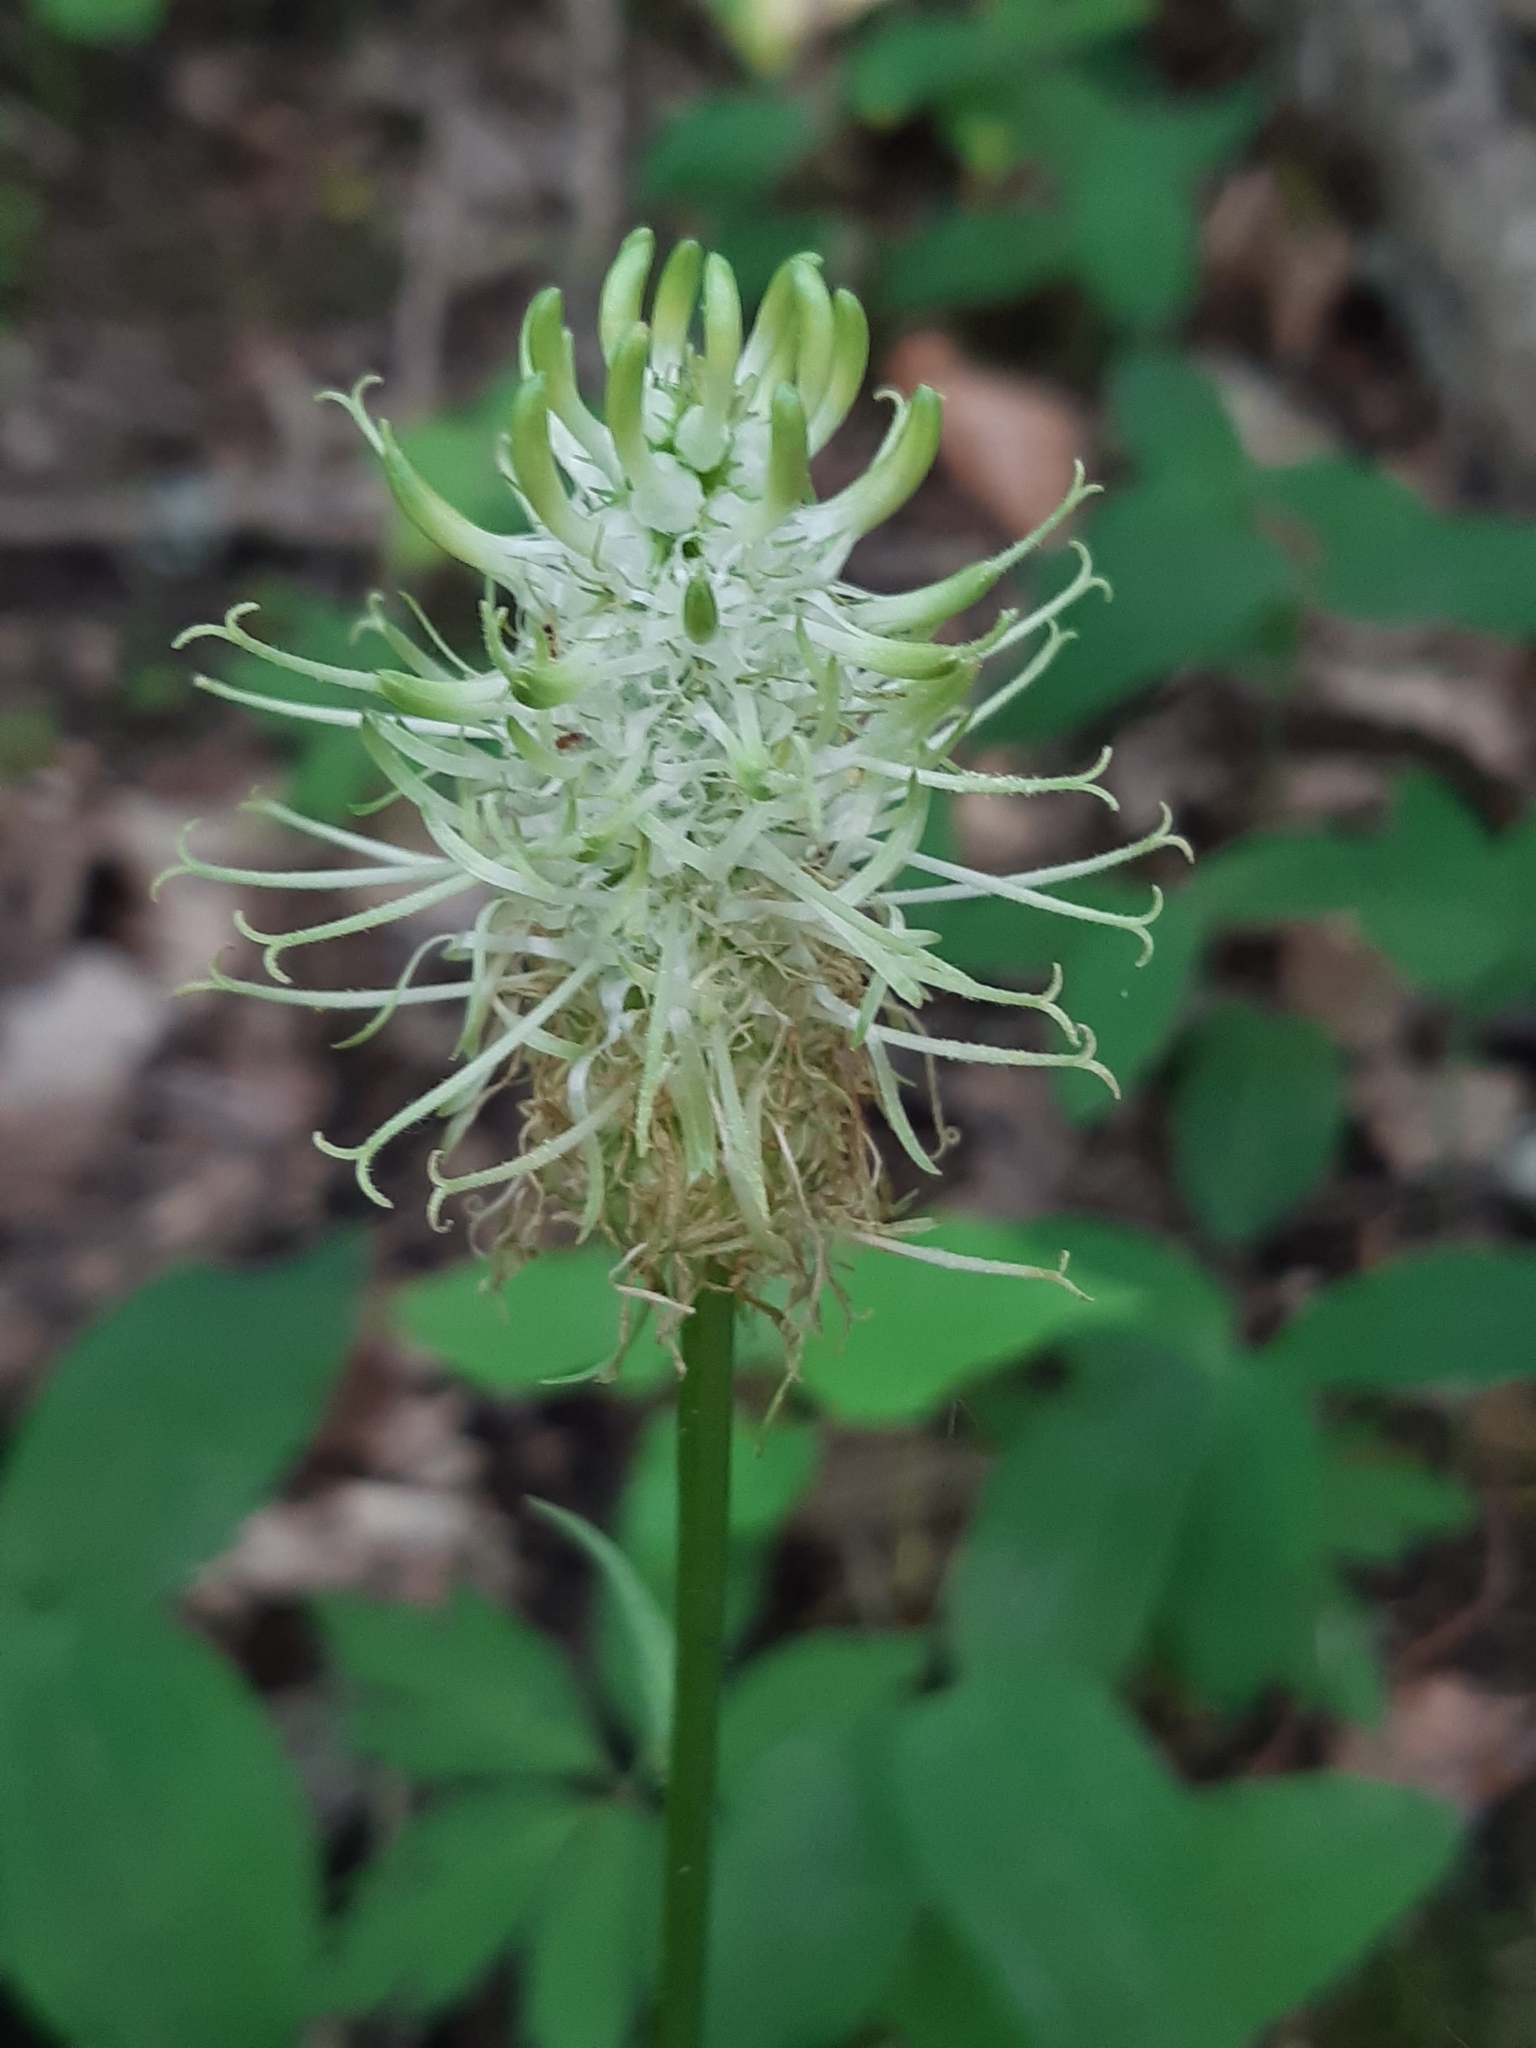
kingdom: Plantae
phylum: Tracheophyta
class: Magnoliopsida
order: Asterales
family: Campanulaceae
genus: Phyteuma
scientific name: Phyteuma spicatum
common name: Spiked rampion
